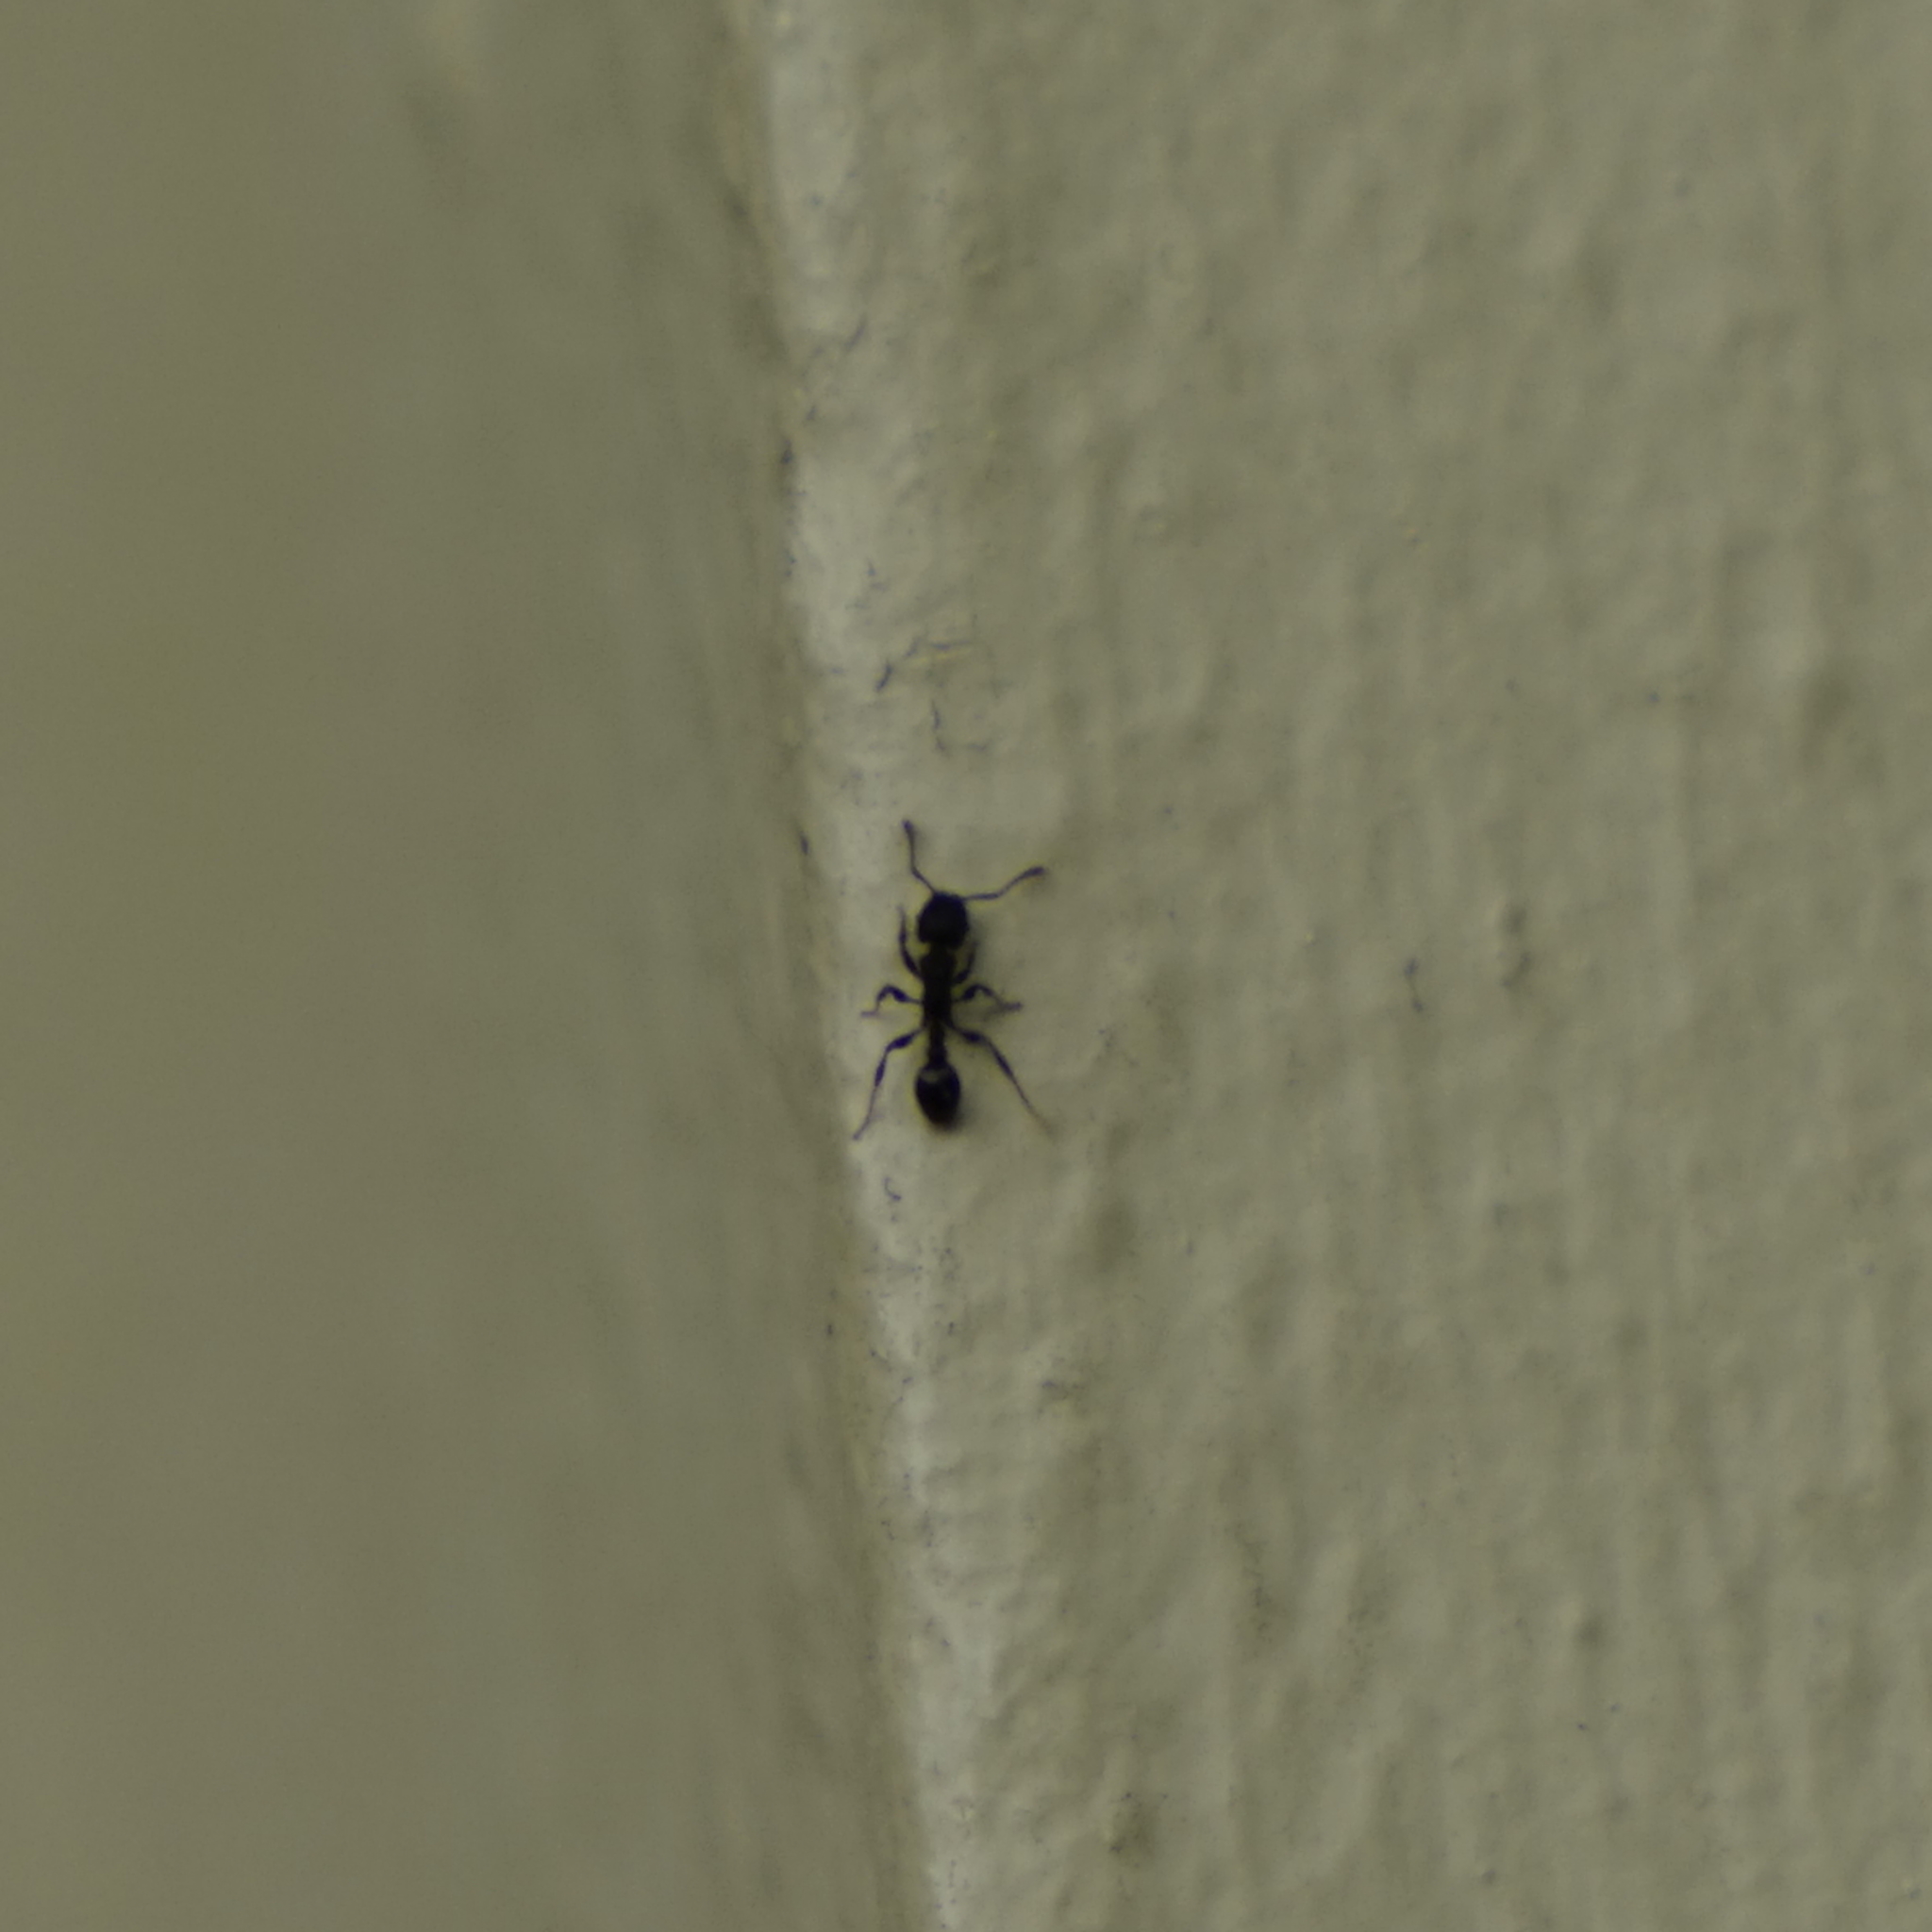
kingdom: Animalia
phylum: Arthropoda
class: Insecta
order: Hymenoptera
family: Formicidae
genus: Tetramorium
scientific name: Tetramorium bicarinatum
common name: Guinea ant
